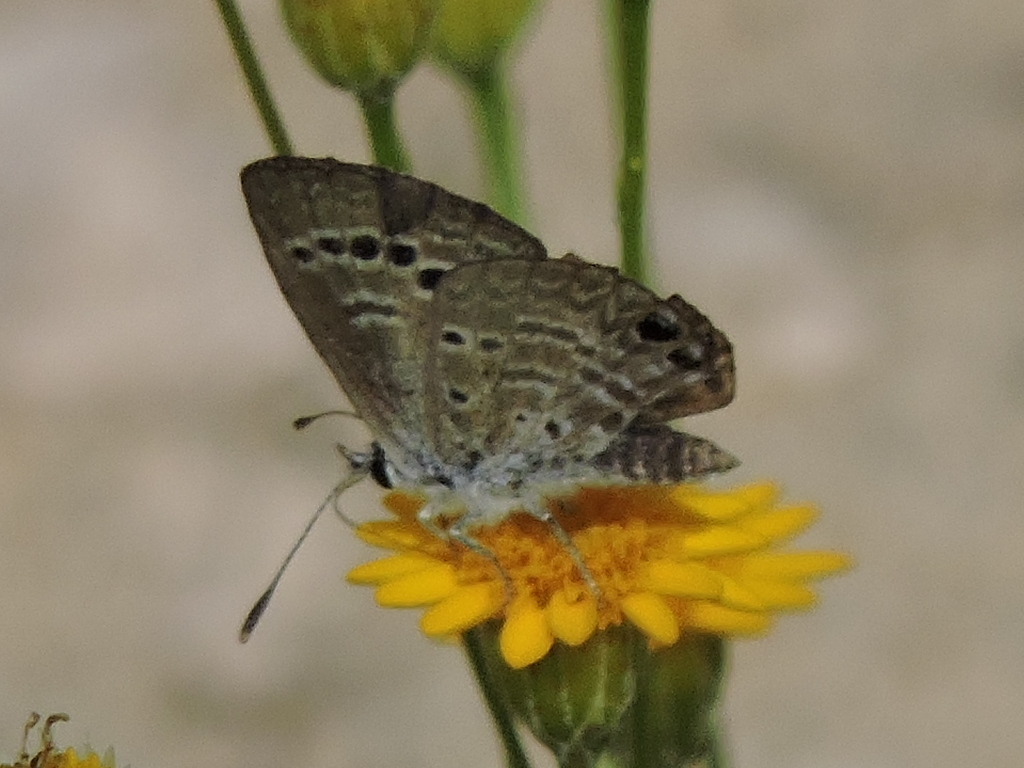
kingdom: Animalia
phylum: Arthropoda
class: Insecta
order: Lepidoptera
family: Lycaenidae
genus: Echinargus
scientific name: Echinargus isola
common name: Reakirt's blue
